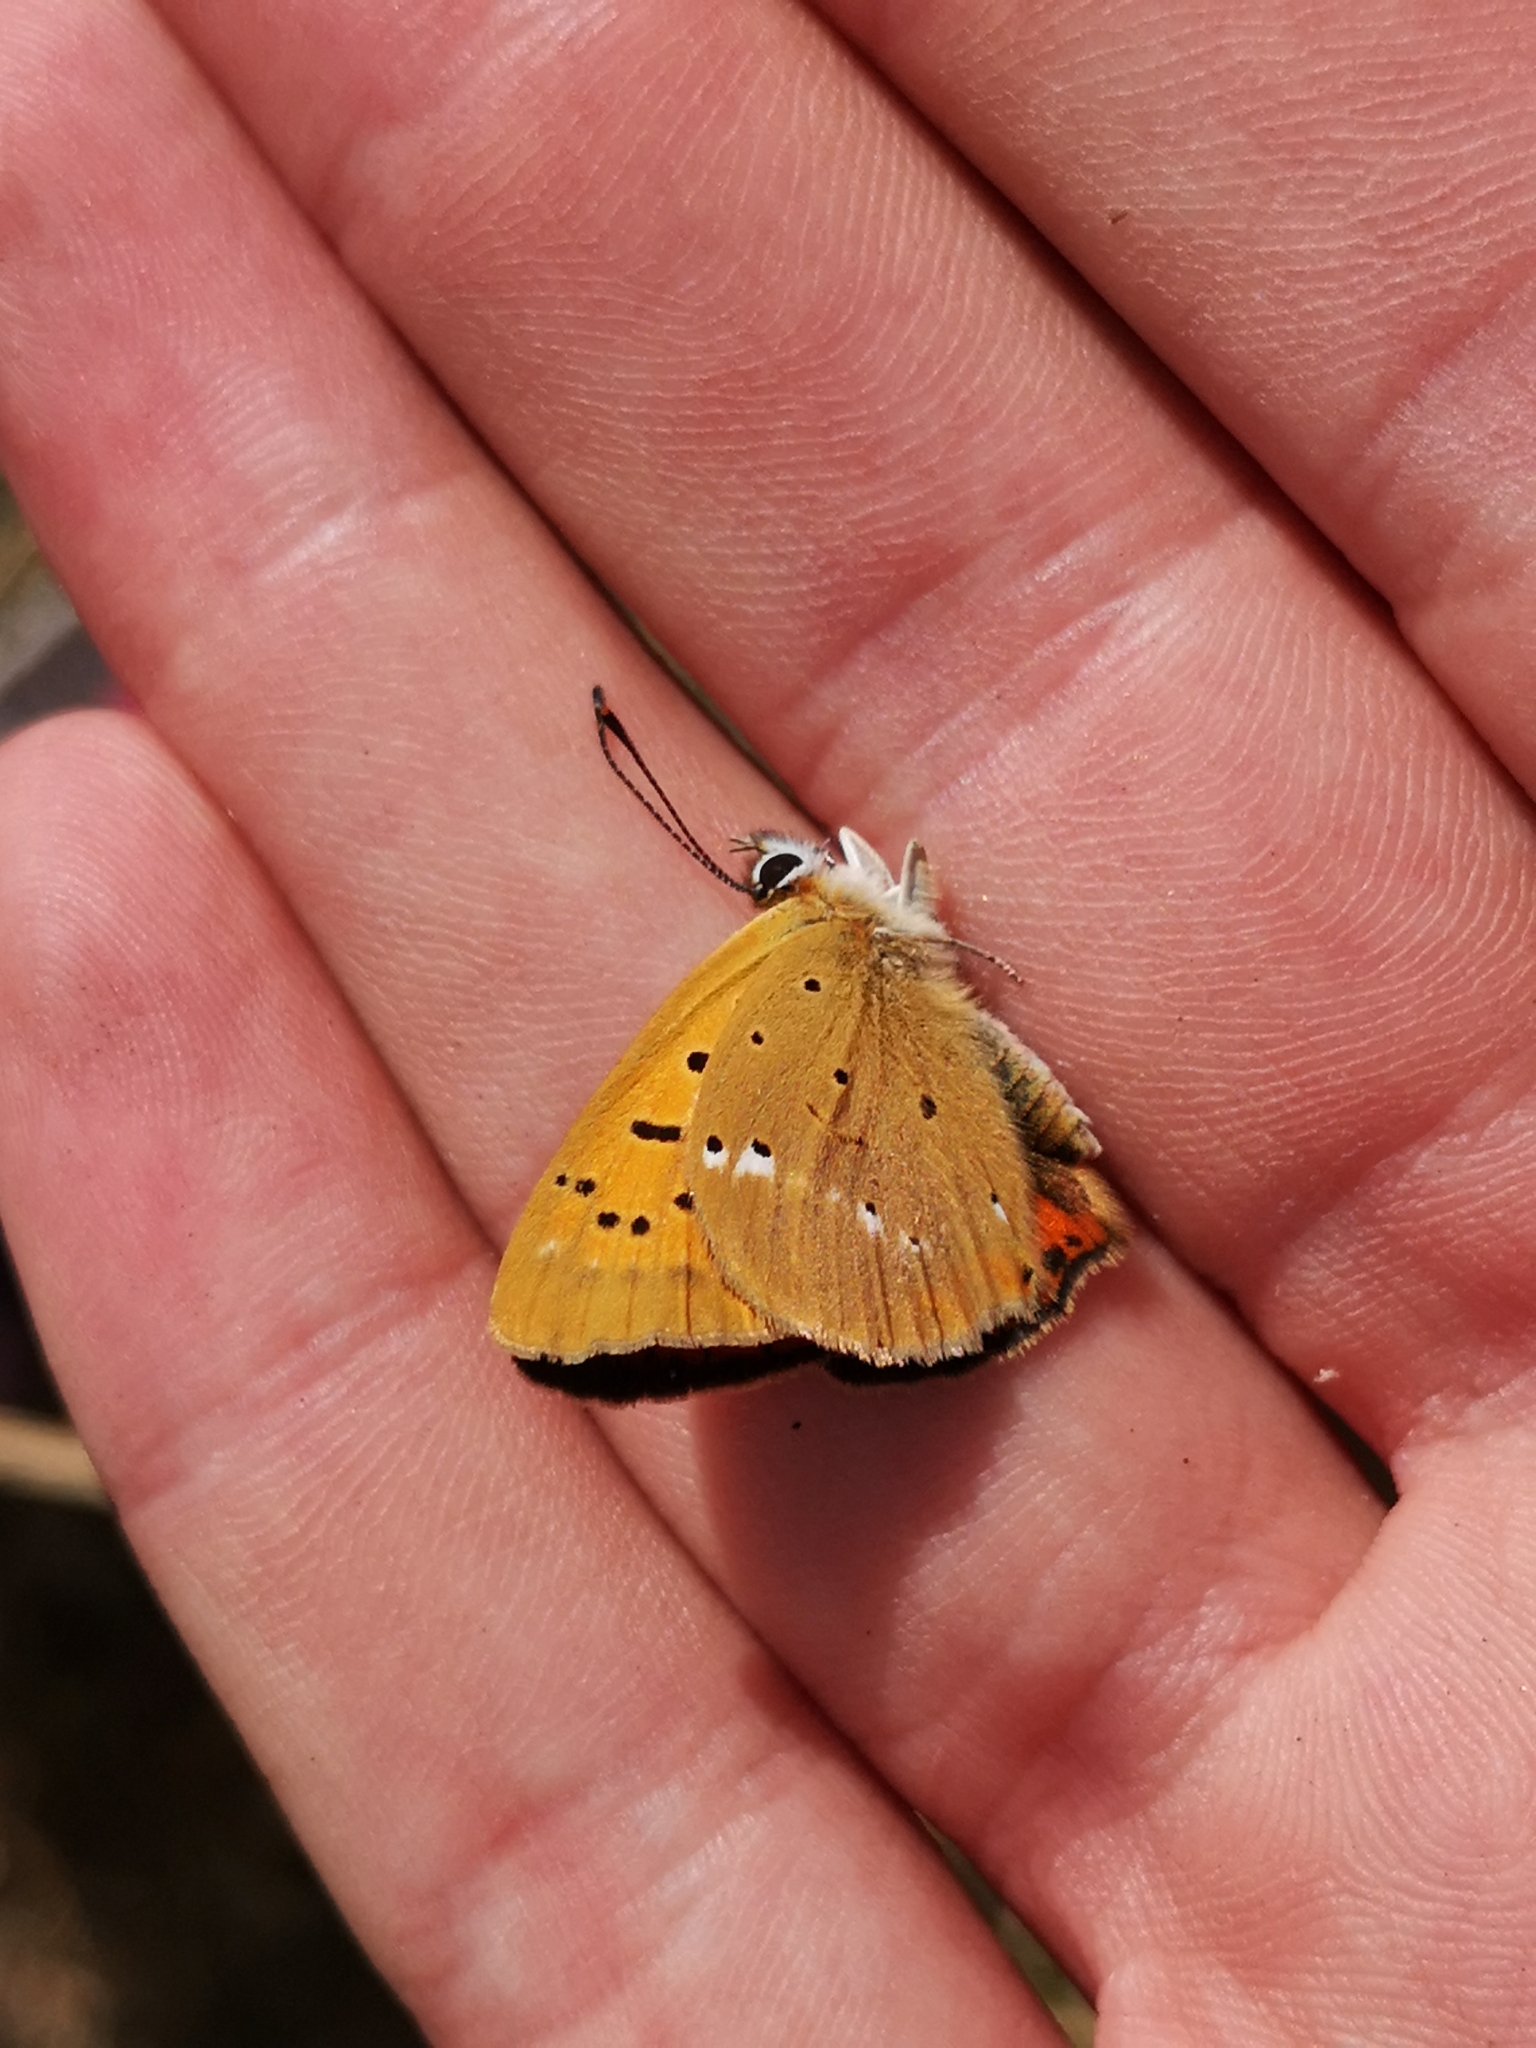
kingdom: Animalia
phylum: Arthropoda
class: Insecta
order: Lepidoptera
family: Lycaenidae
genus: Lycaena
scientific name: Lycaena virgaureae
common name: Scarce copper
